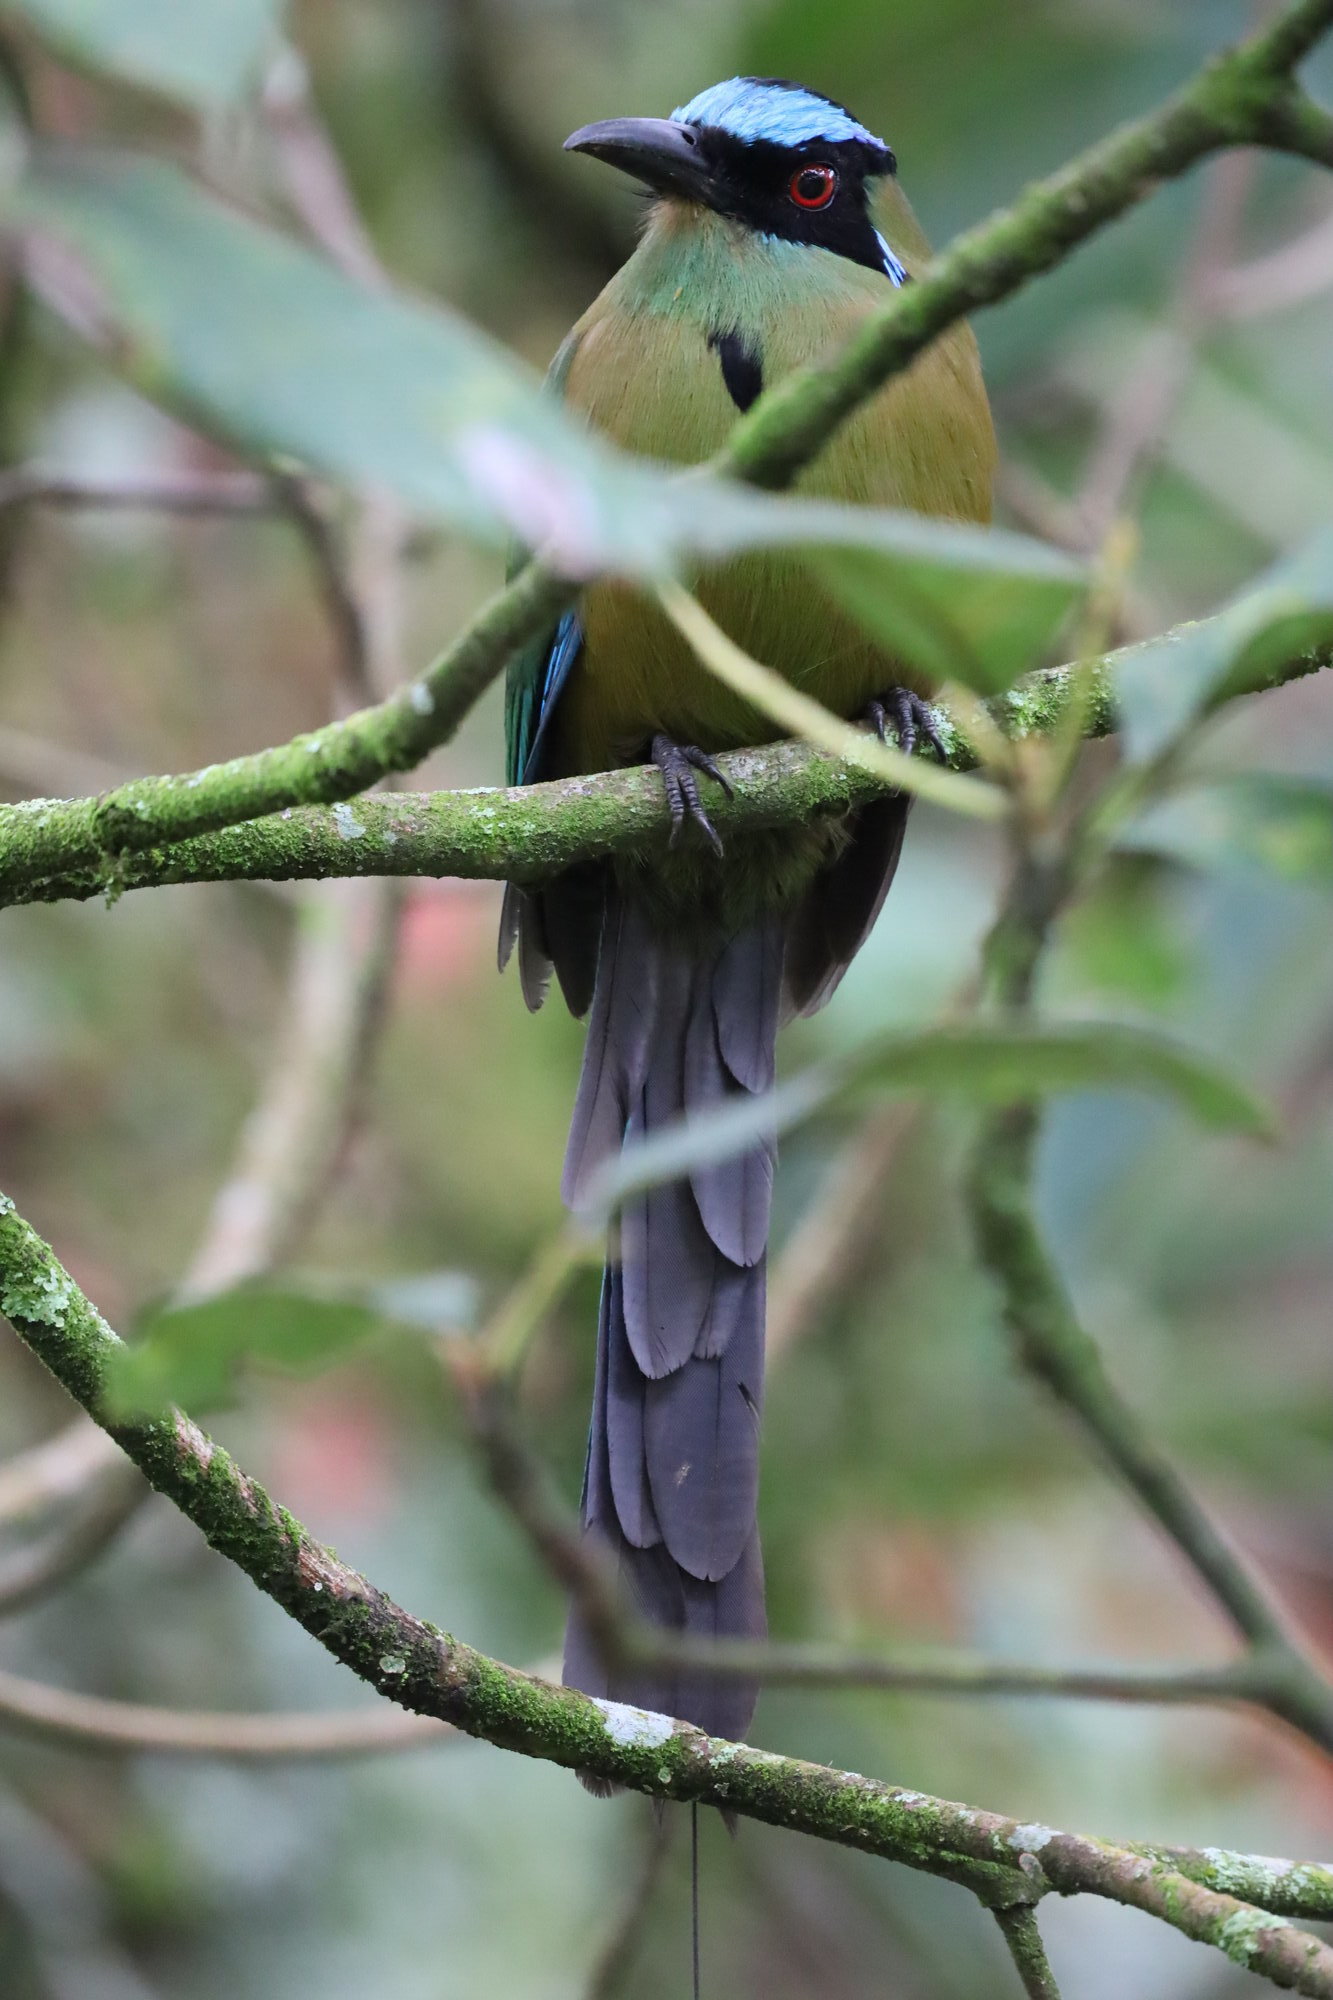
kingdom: Animalia
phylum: Chordata
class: Aves
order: Coraciiformes
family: Momotidae
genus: Momotus
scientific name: Momotus aequatorialis
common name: Andean motmot
